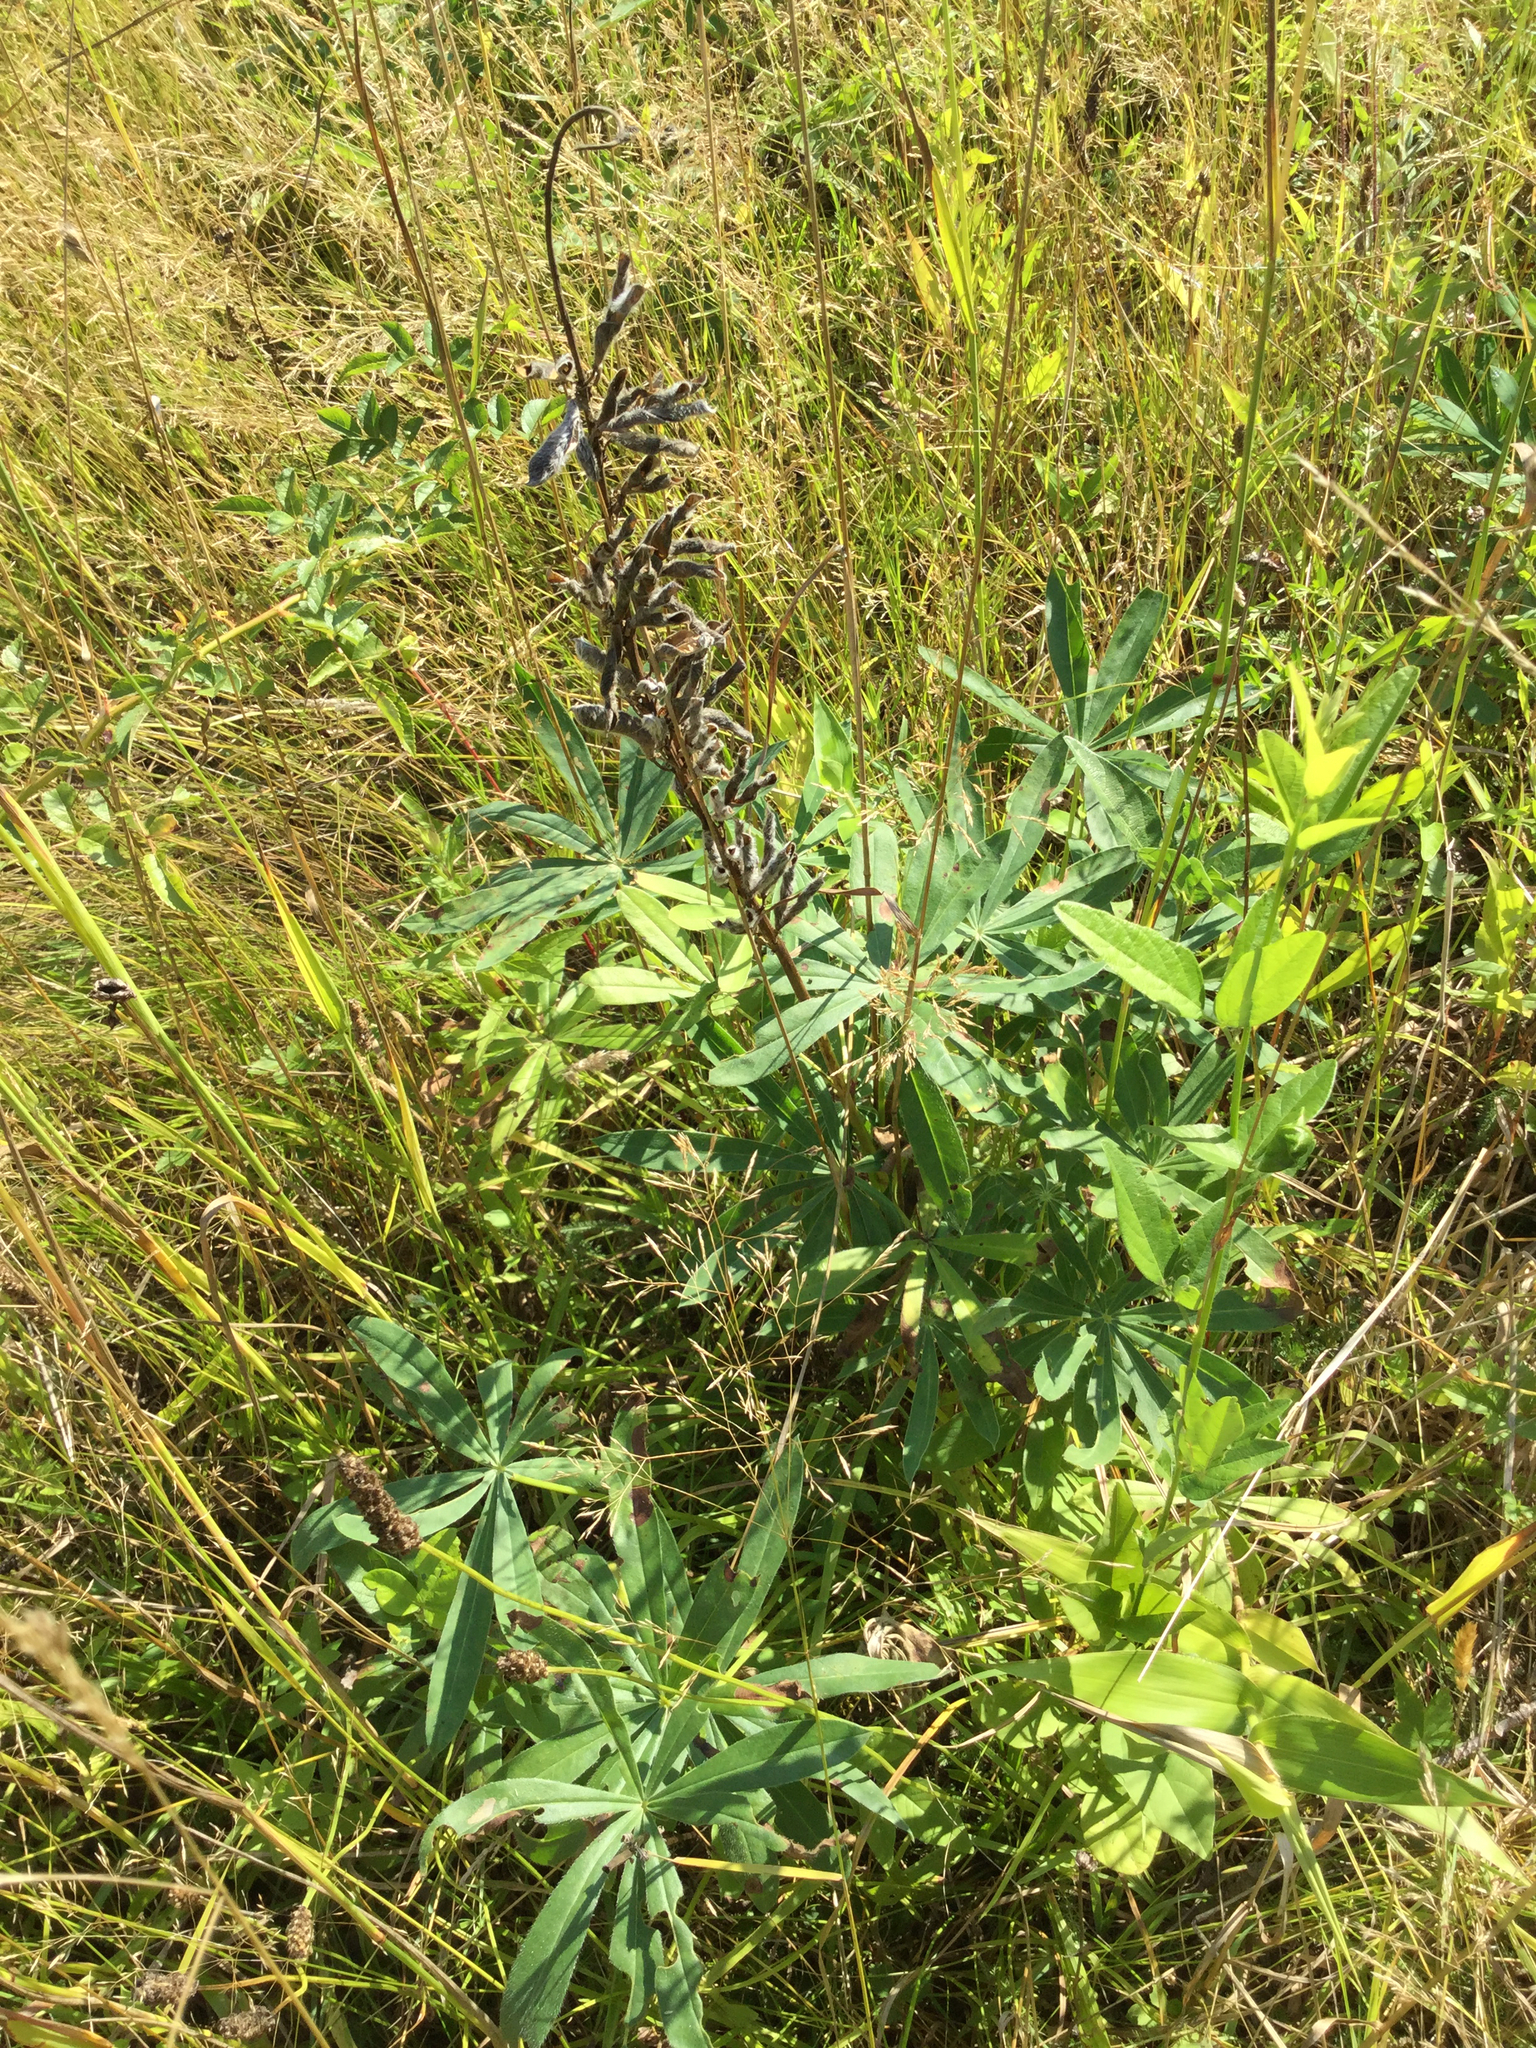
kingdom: Plantae
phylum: Tracheophyta
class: Magnoliopsida
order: Fabales
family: Fabaceae
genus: Lupinus
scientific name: Lupinus polyphyllus
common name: Garden lupin
